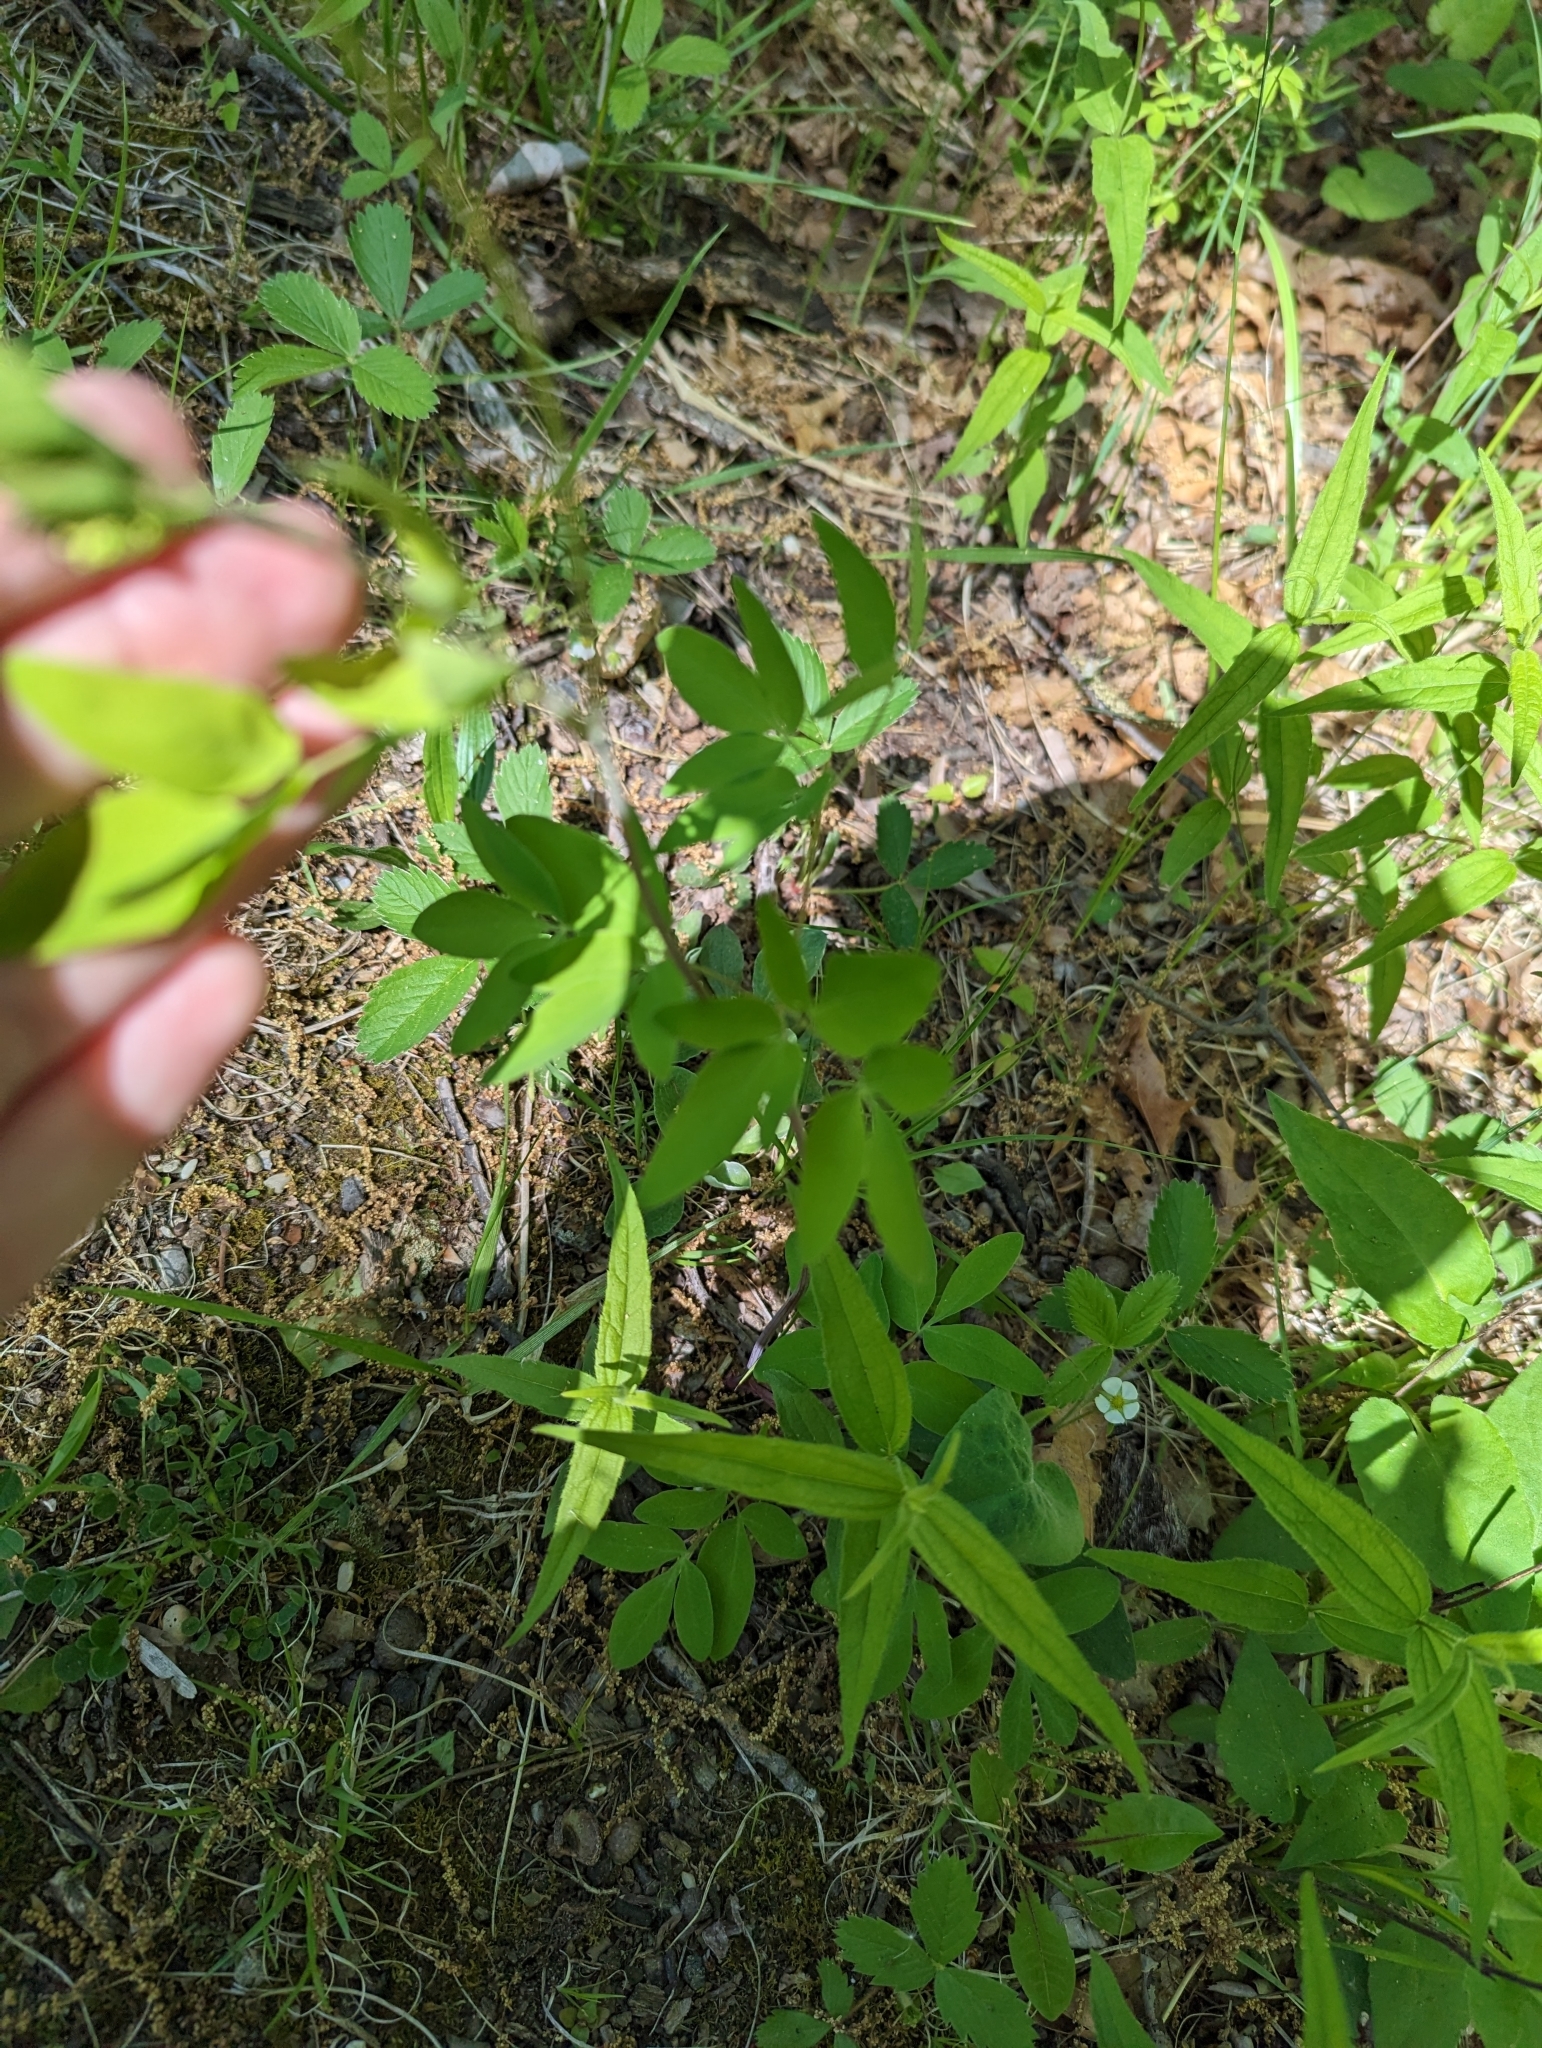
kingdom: Plantae
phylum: Tracheophyta
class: Magnoliopsida
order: Apiales
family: Apiaceae
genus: Taenidia
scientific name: Taenidia integerrima
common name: Golden alexander
